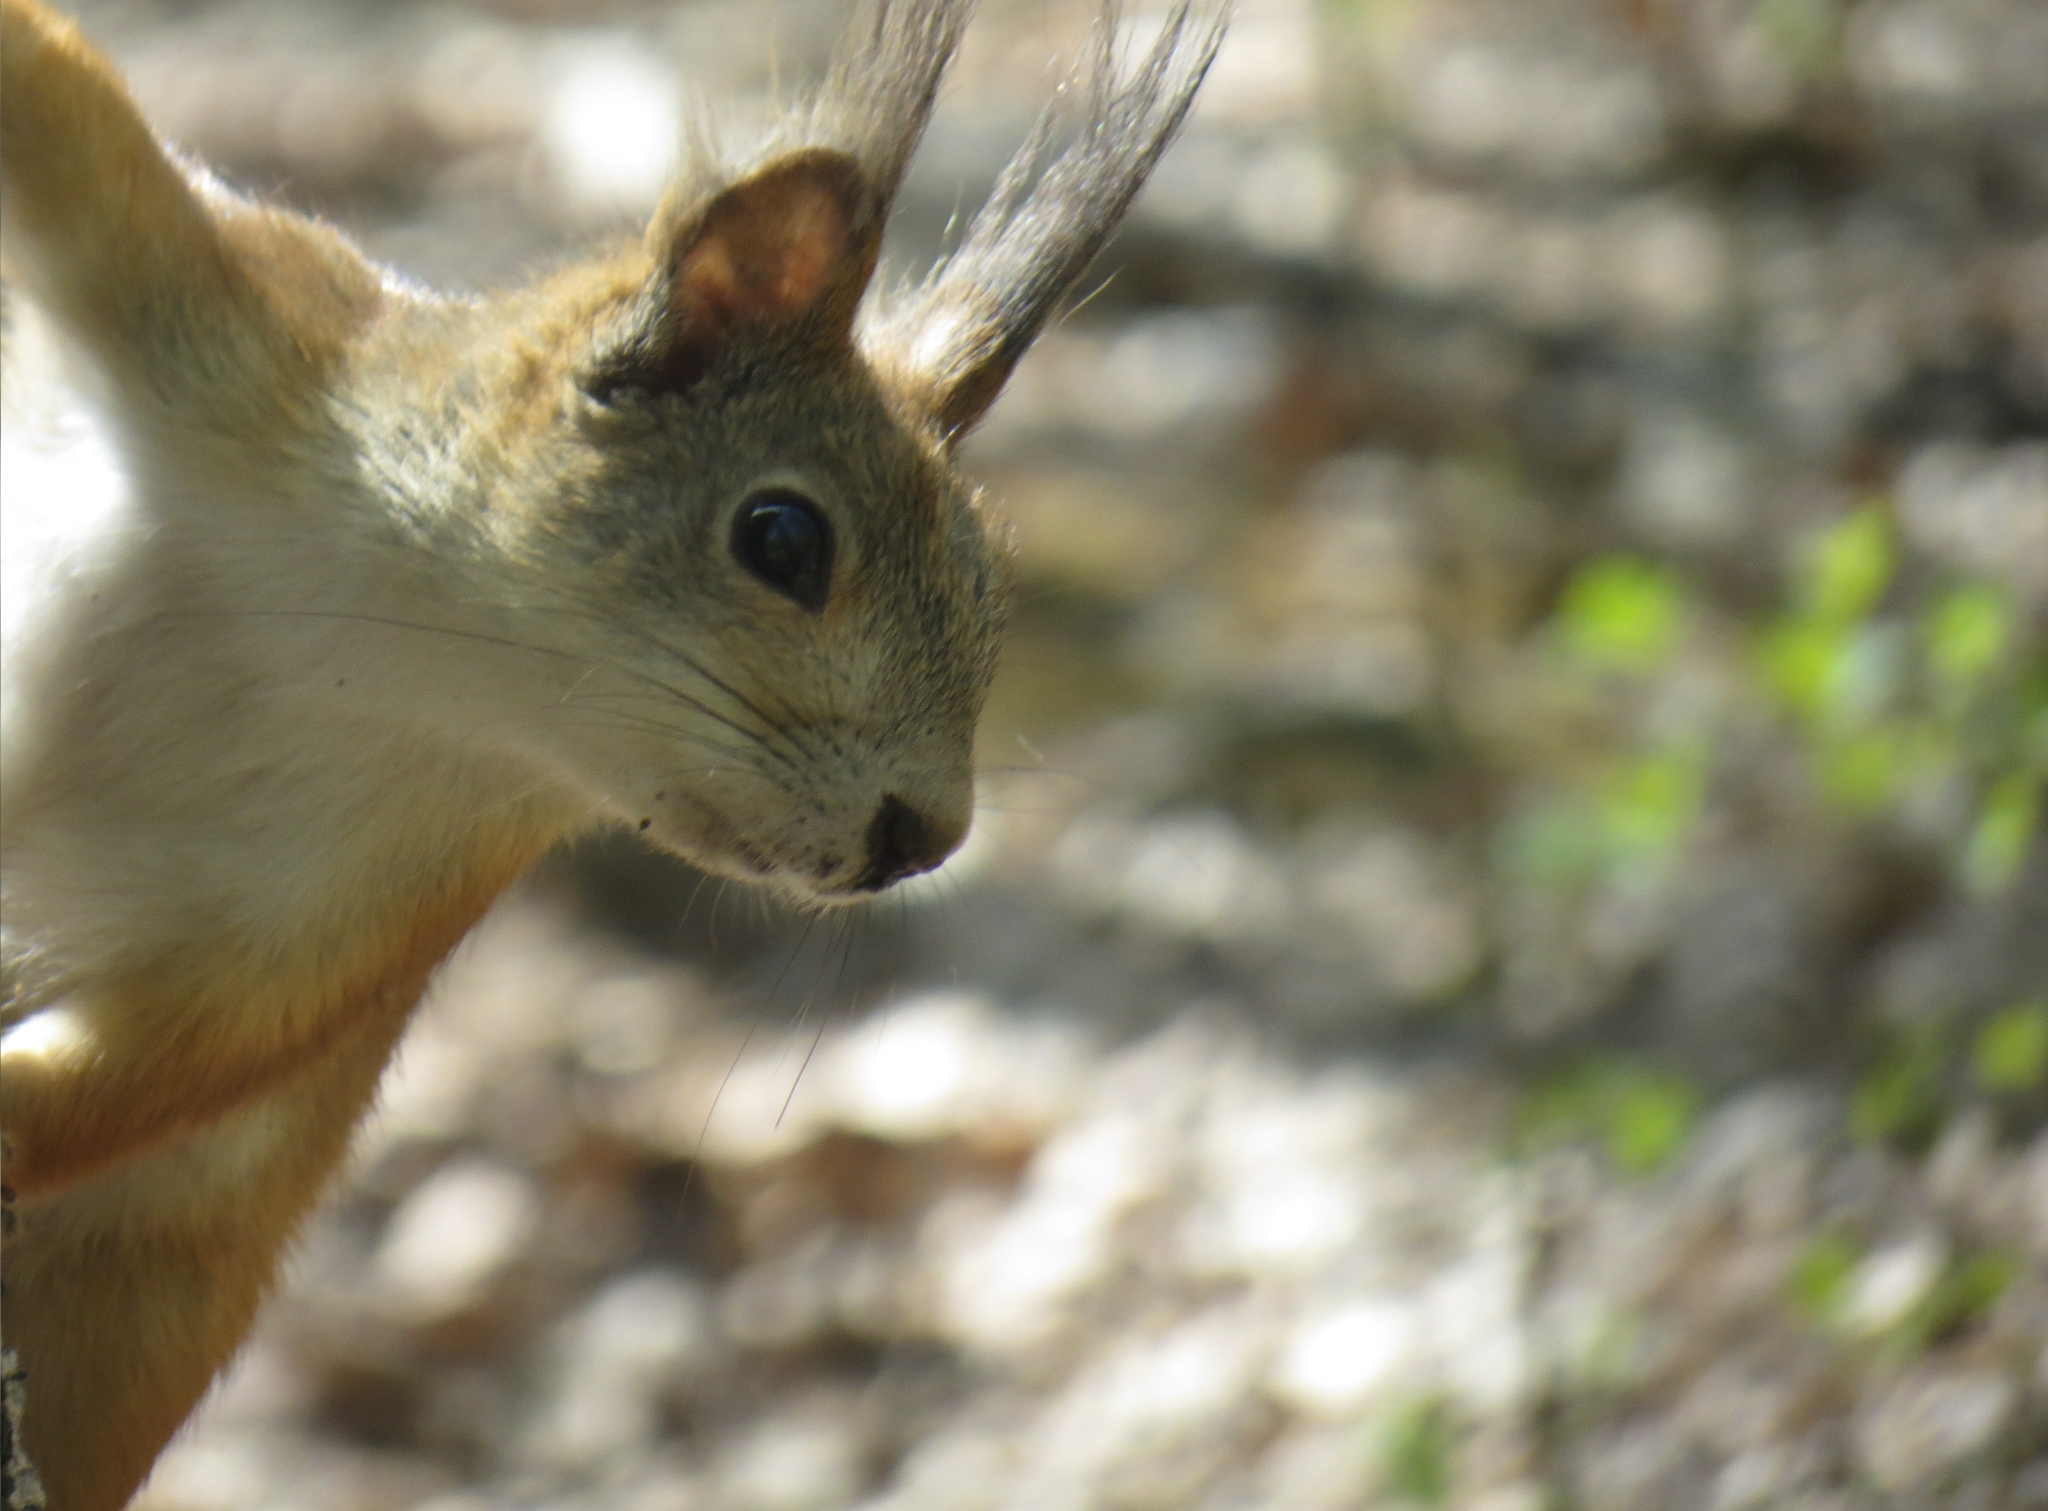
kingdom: Animalia
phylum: Chordata
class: Mammalia
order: Rodentia
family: Sciuridae
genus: Sciurus
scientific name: Sciurus vulgaris
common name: Eurasian red squirrel
